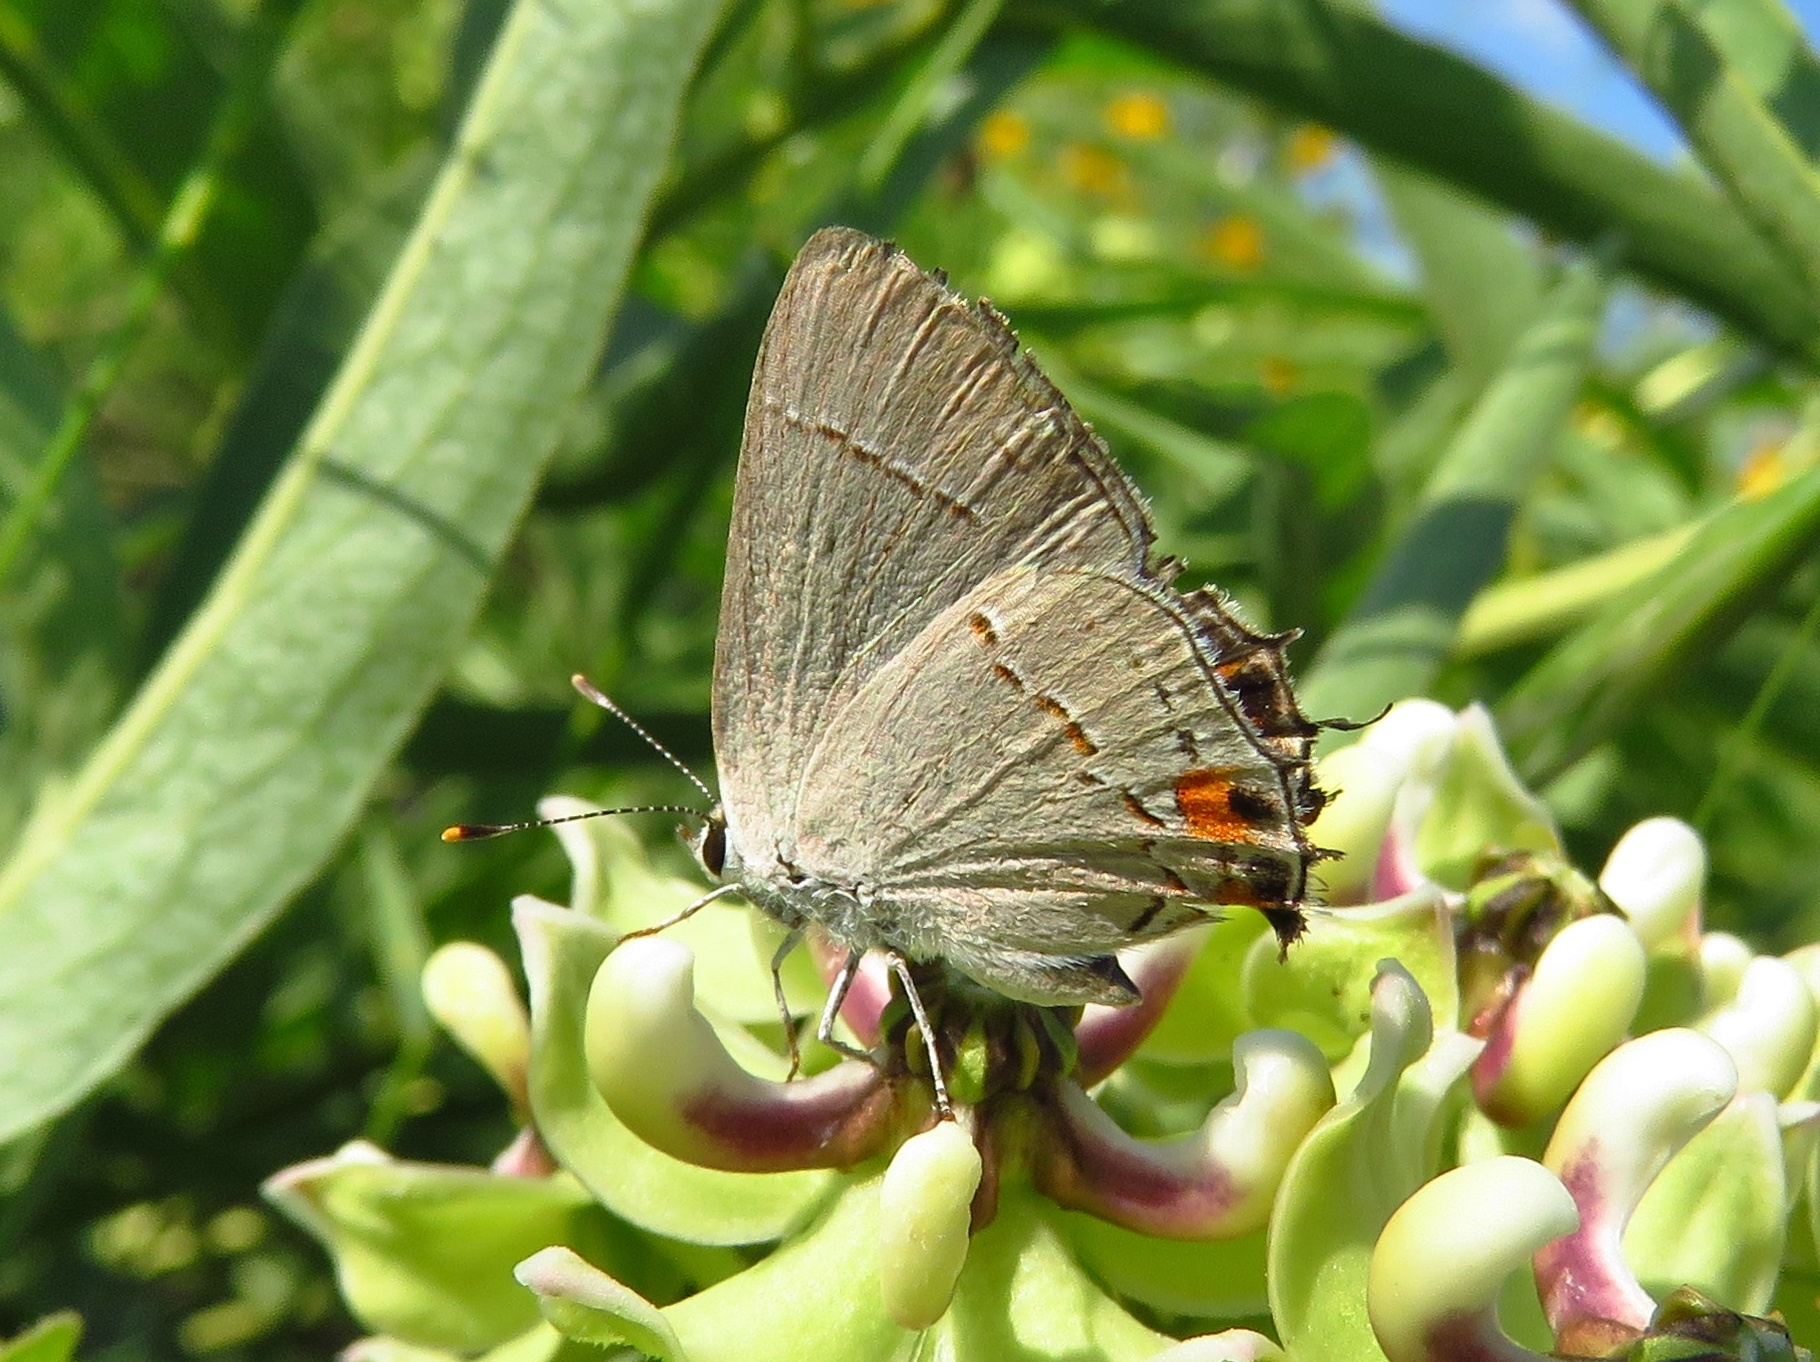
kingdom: Animalia
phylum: Arthropoda
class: Insecta
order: Lepidoptera
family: Lycaenidae
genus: Strymon
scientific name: Strymon melinus
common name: Gray hairstreak
